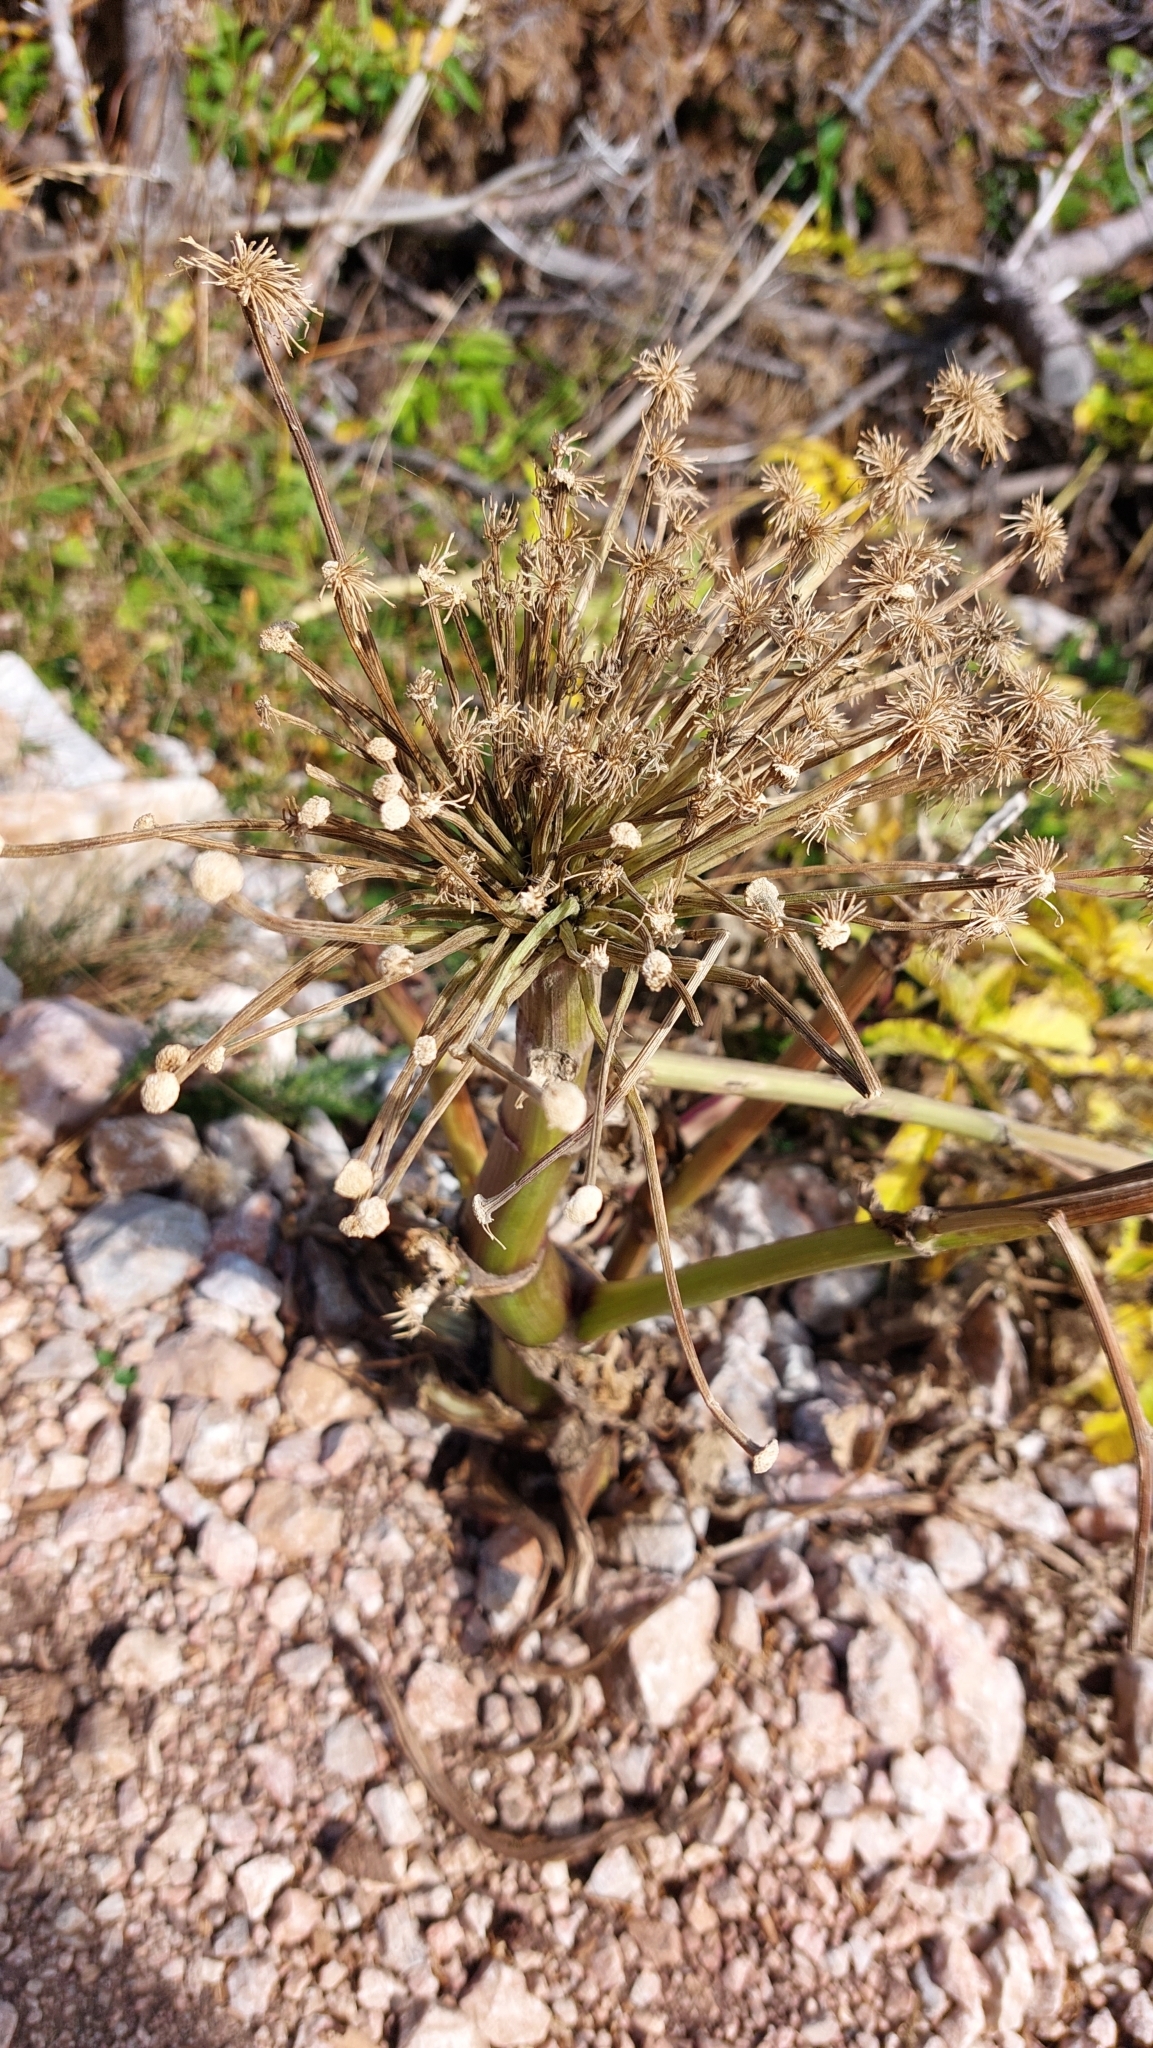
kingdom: Plantae
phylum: Tracheophyta
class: Magnoliopsida
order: Apiales
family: Apiaceae
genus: Angelica
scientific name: Angelica sylvestris
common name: Wild angelica
